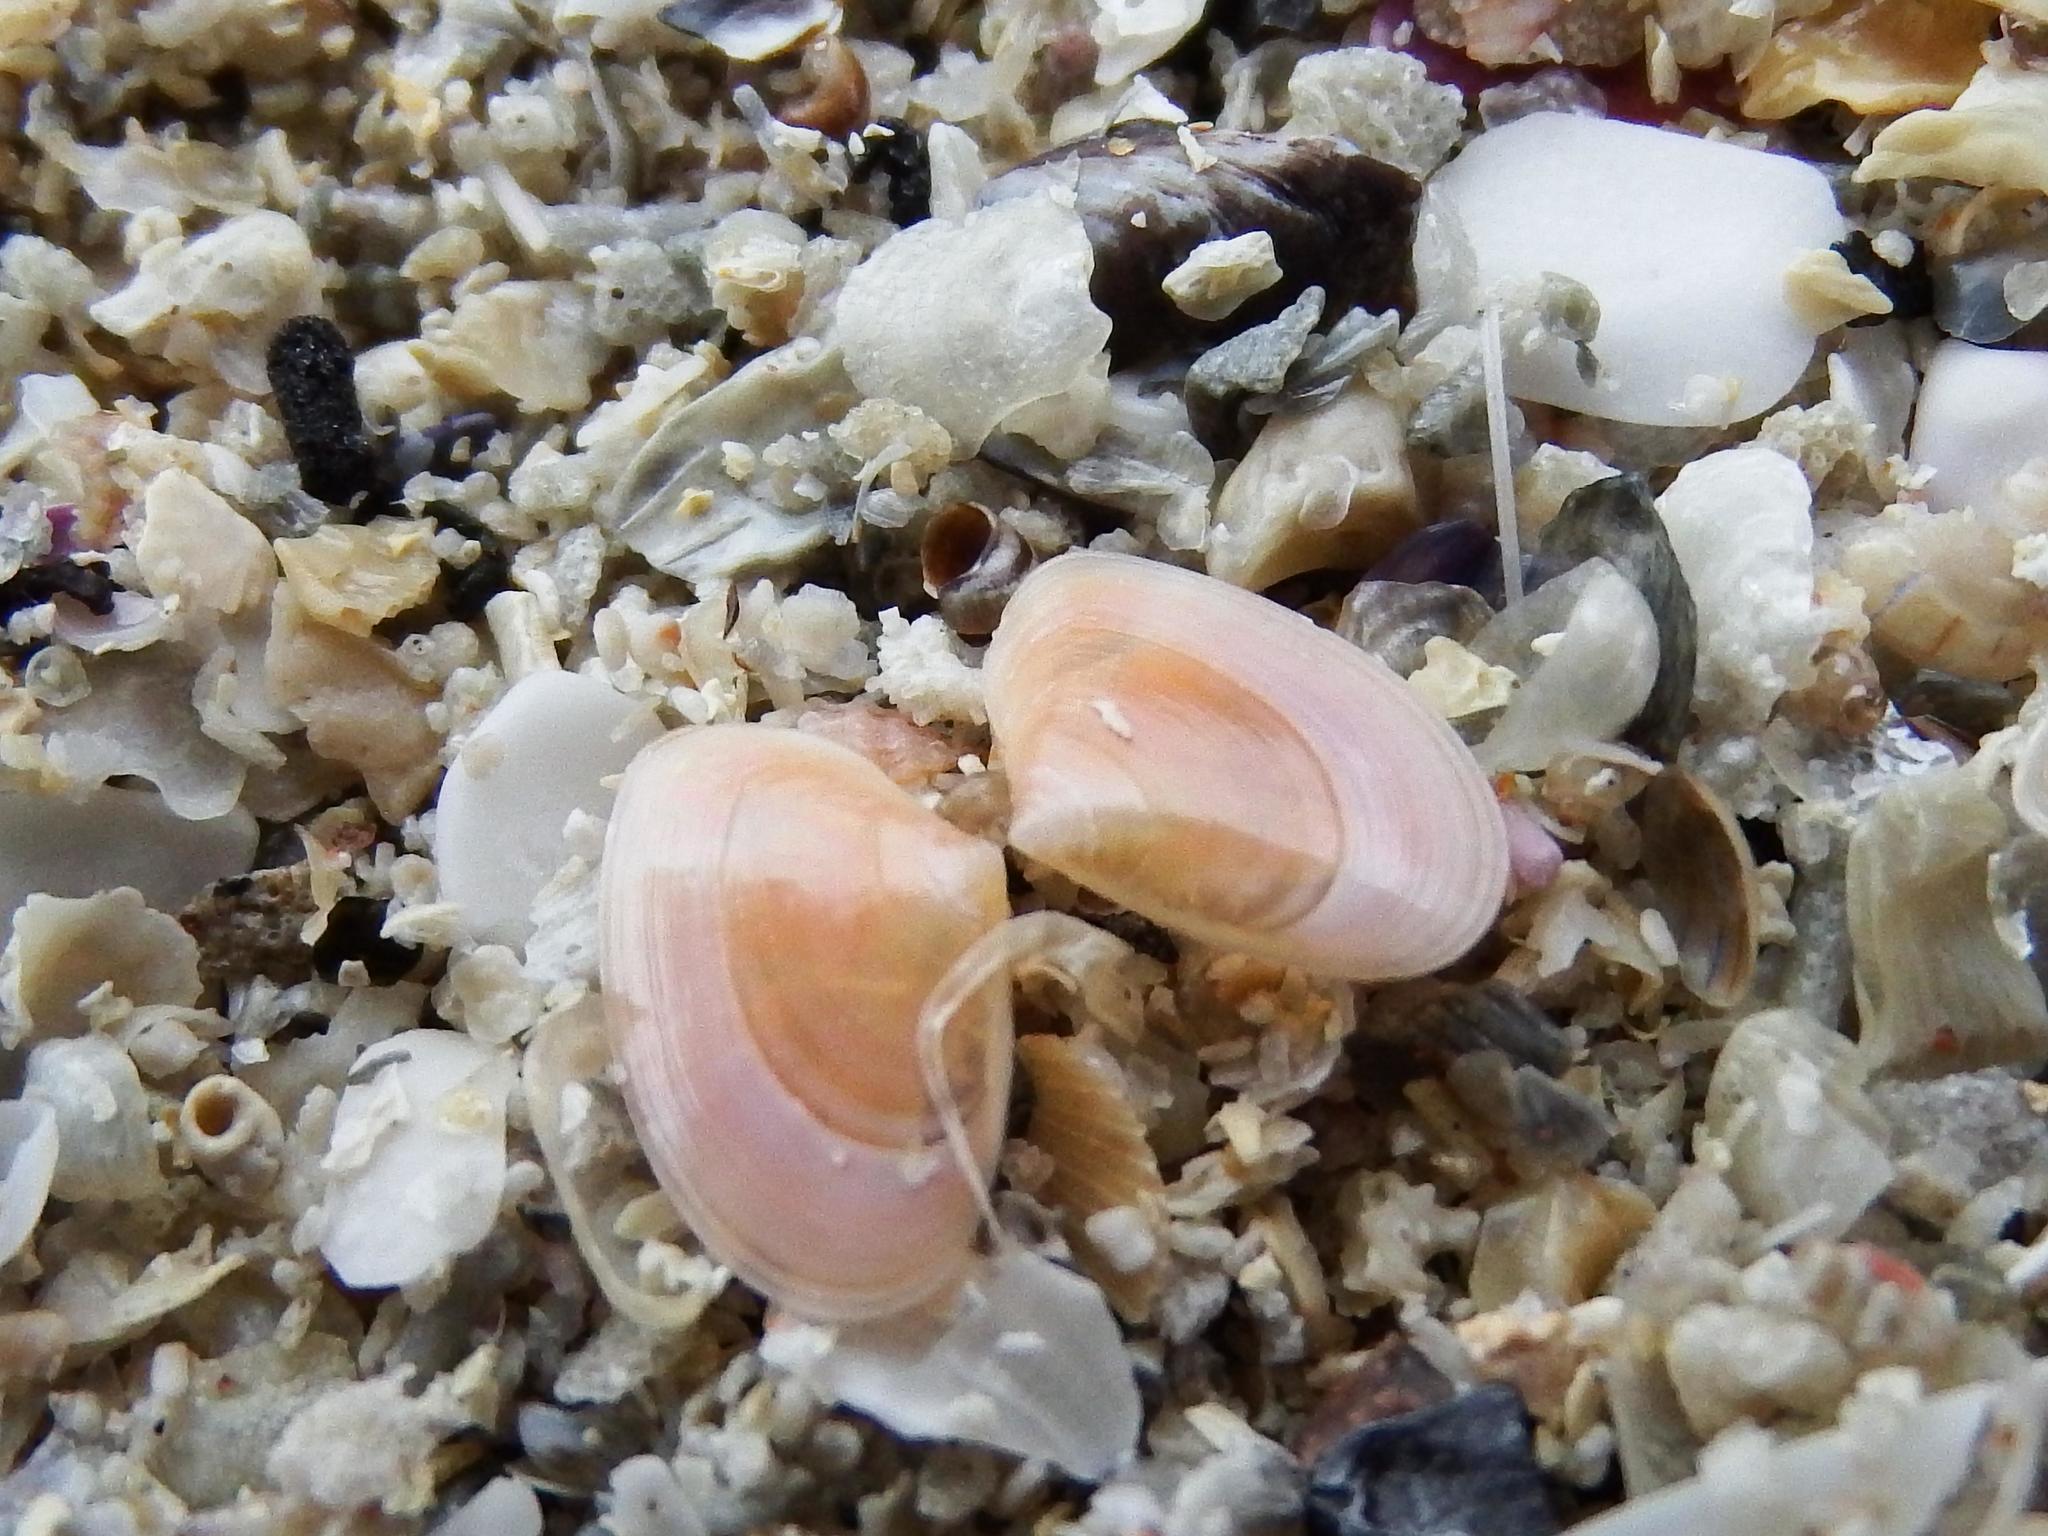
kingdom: Animalia
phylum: Mollusca
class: Bivalvia
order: Cardiida
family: Tellinidae
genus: Macomangulus
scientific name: Macomangulus tenuis
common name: Thin tellin
